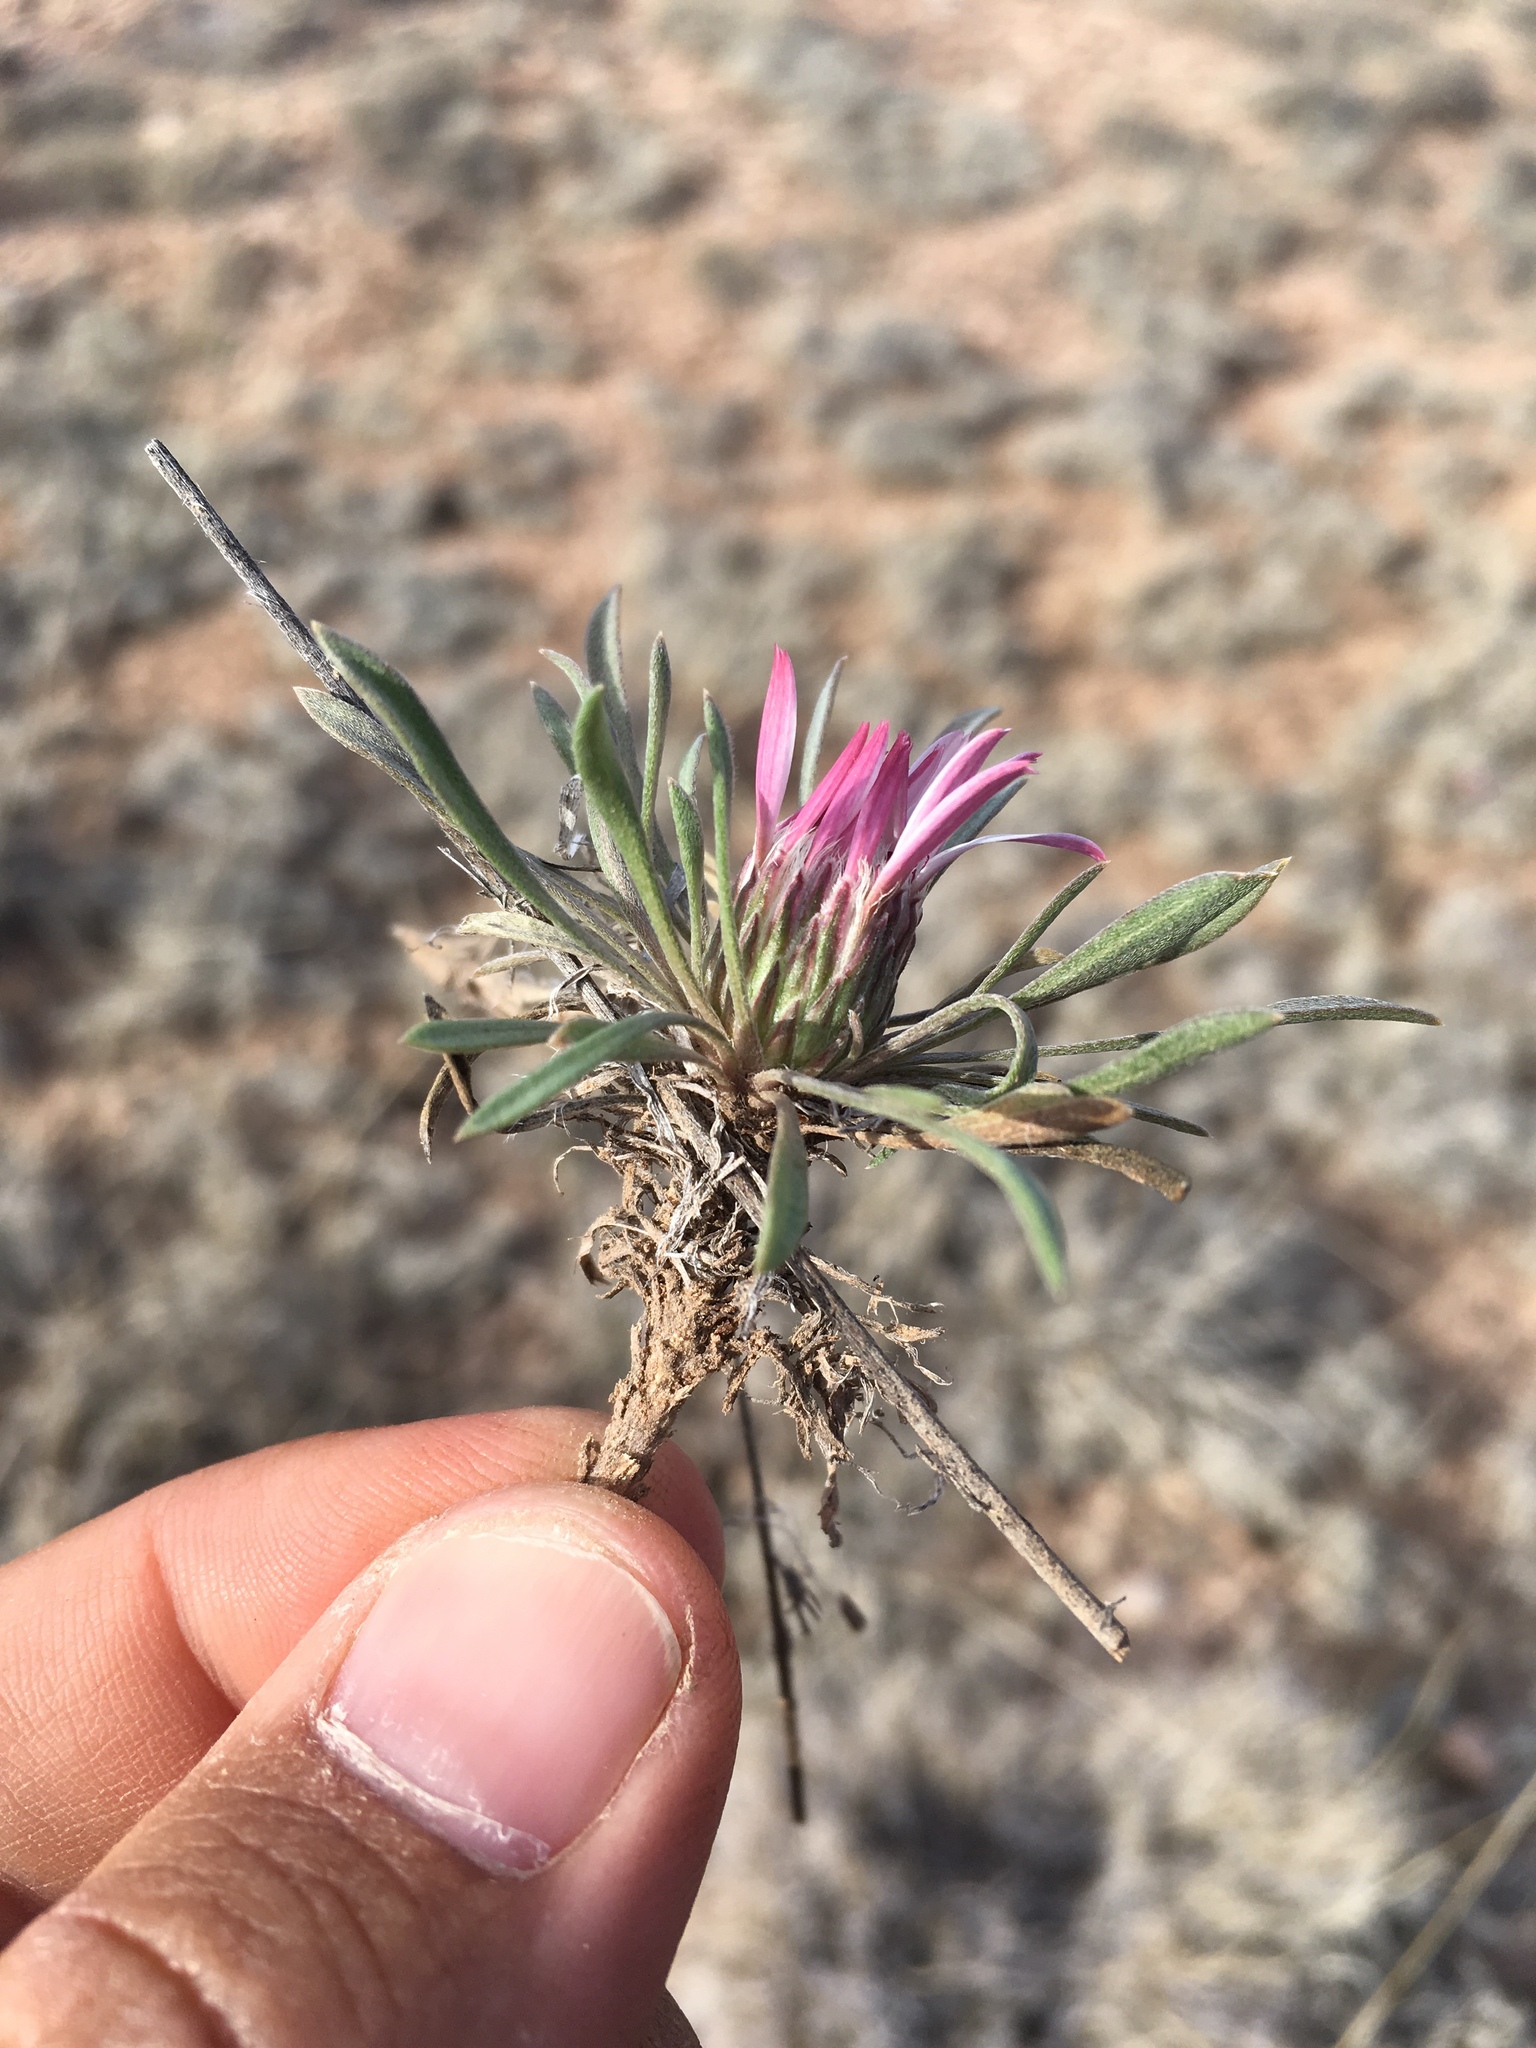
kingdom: Plantae
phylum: Tracheophyta
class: Magnoliopsida
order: Asterales
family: Asteraceae
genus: Townsendia
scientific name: Townsendia exscapa
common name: Dwarf townsendia
